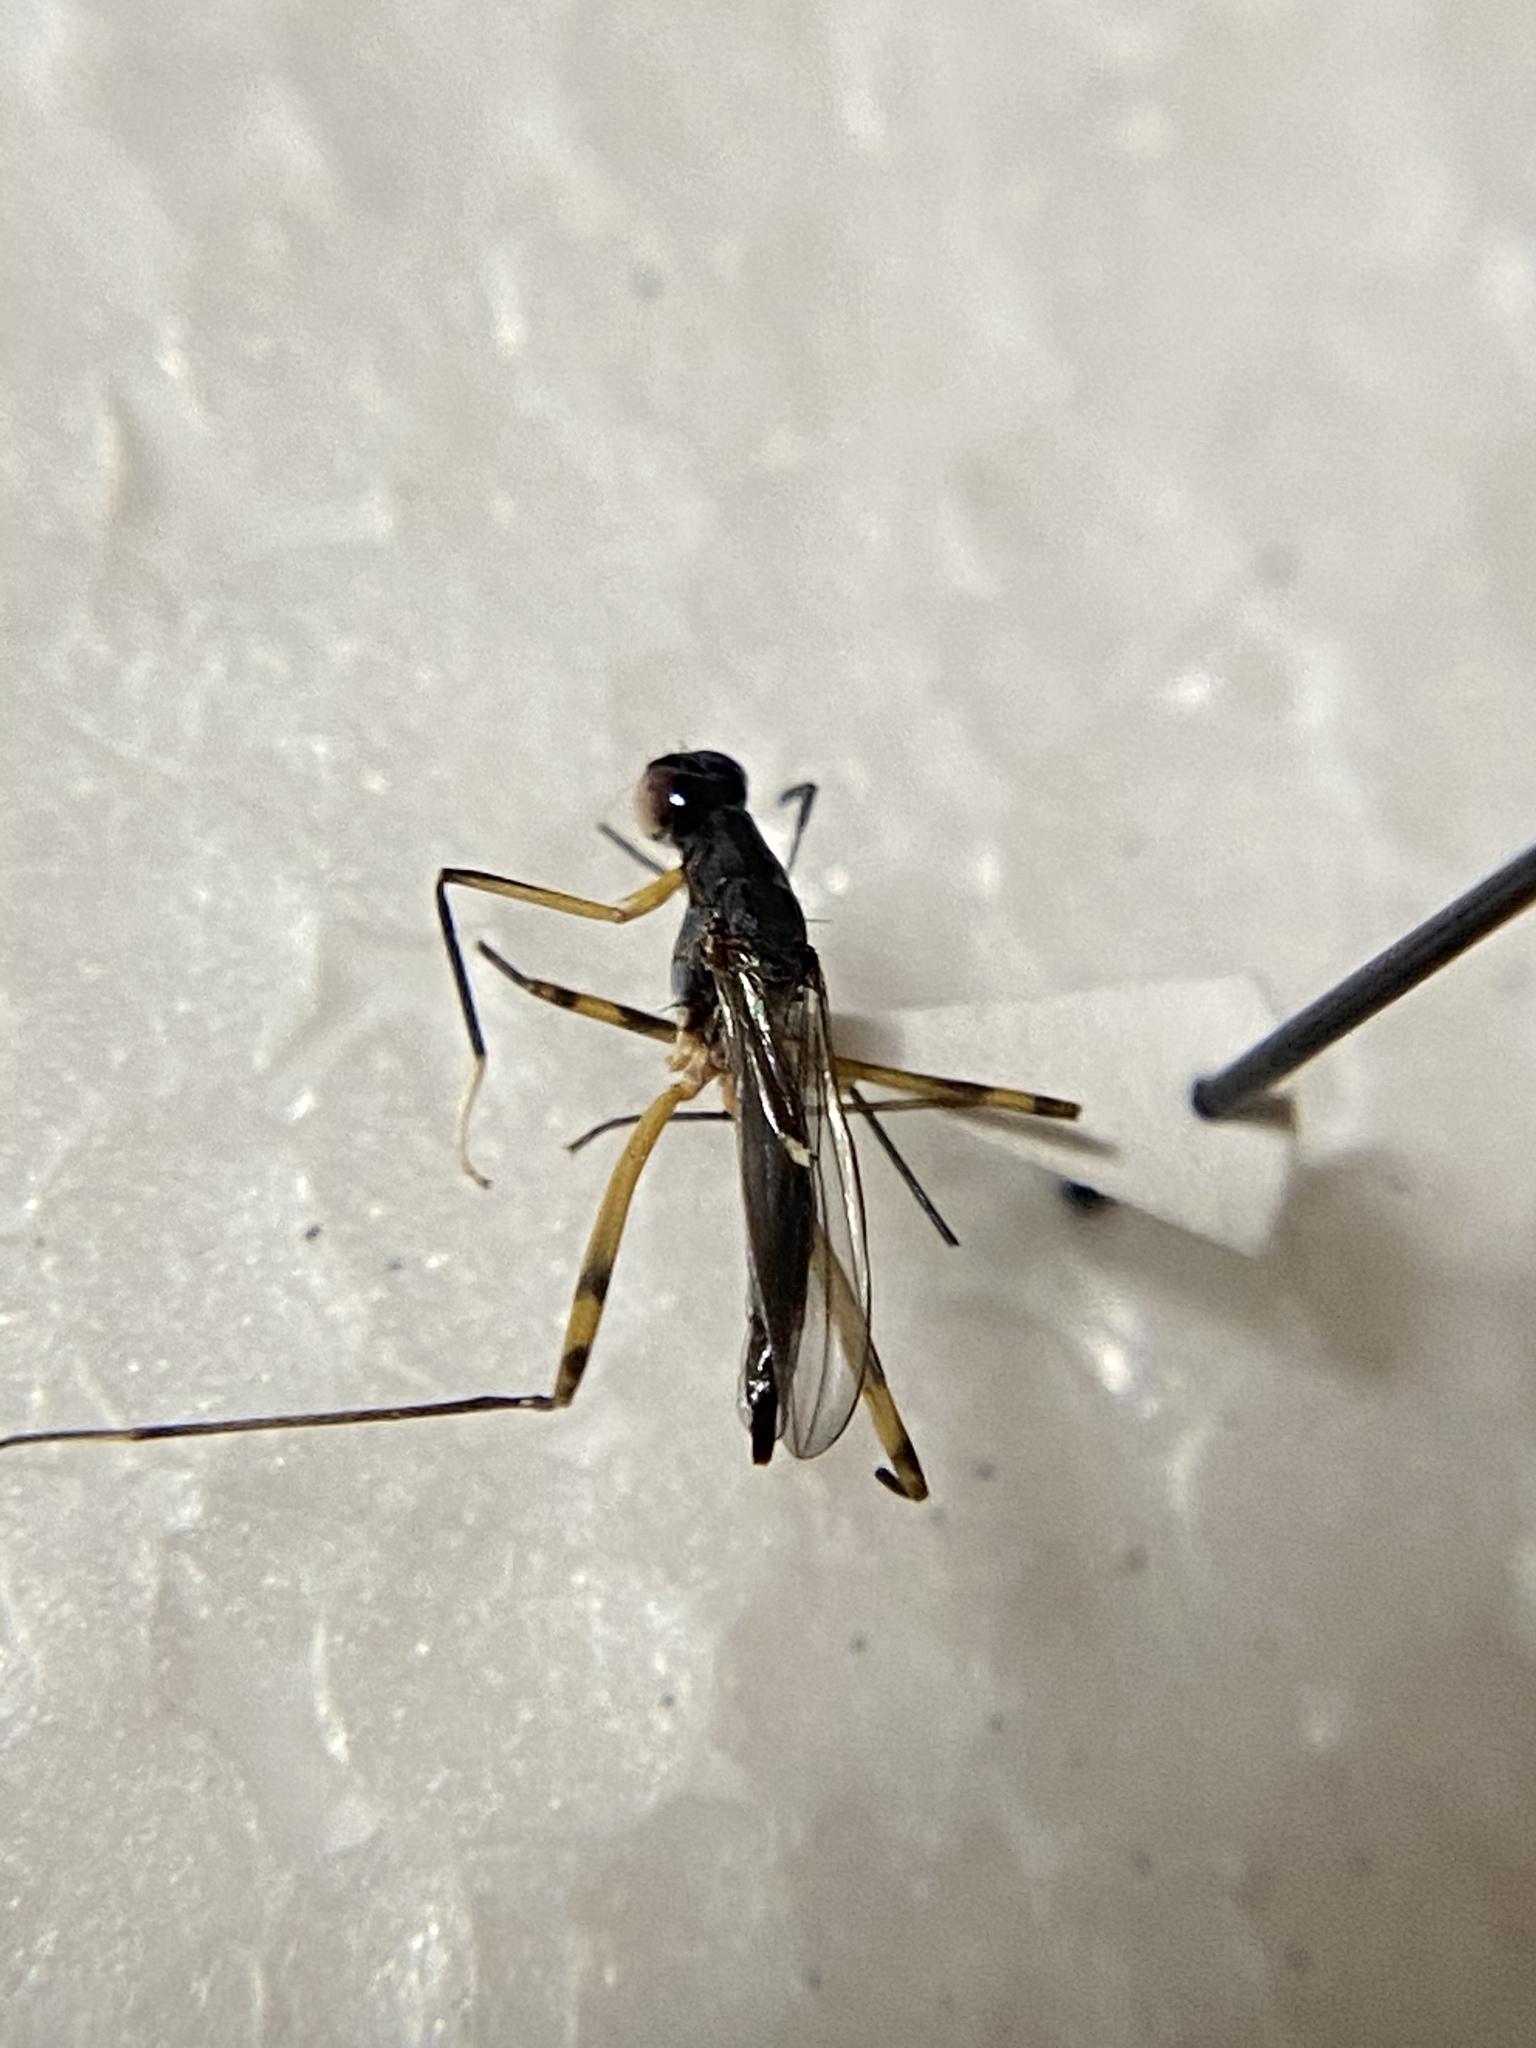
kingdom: Animalia
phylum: Arthropoda
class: Insecta
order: Diptera
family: Micropezidae
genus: Rainieria
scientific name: Rainieria antennaepes
